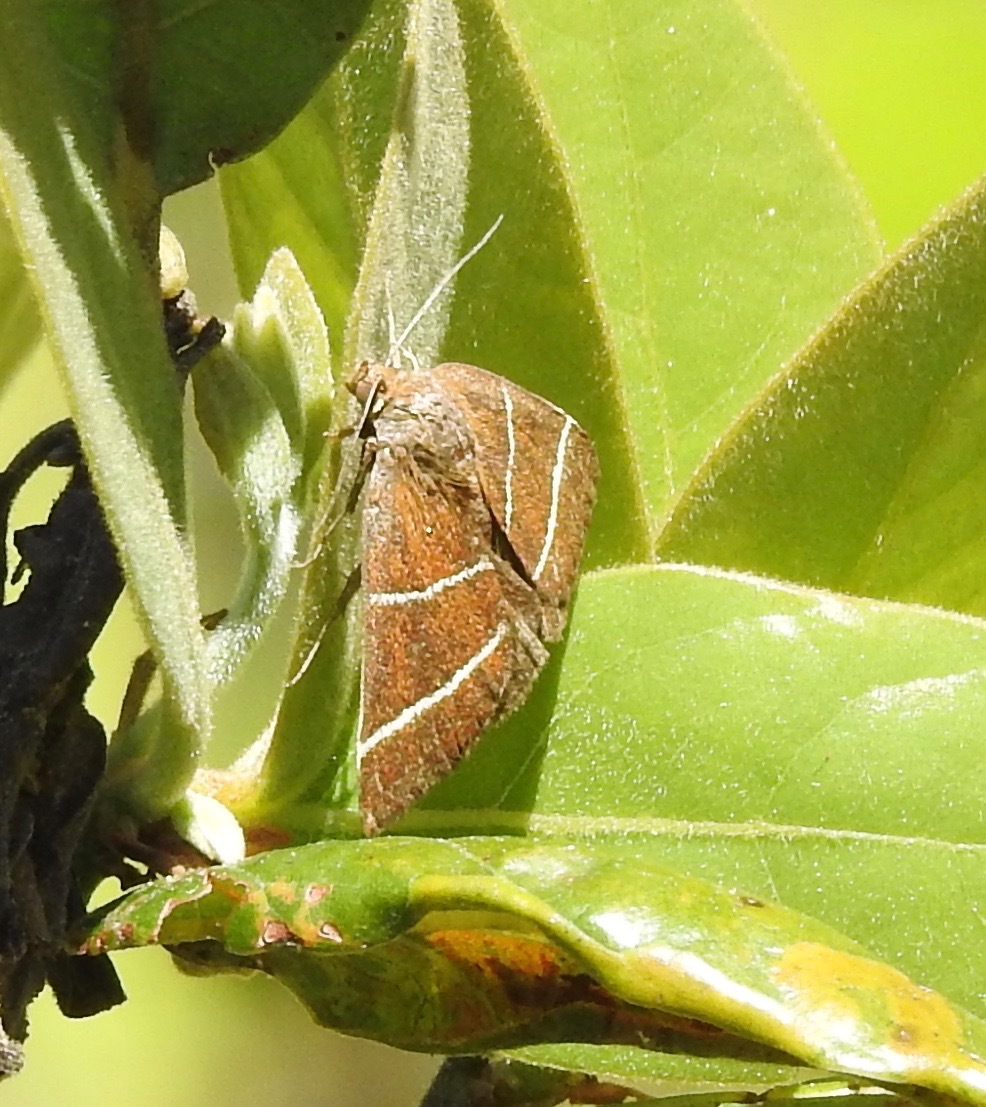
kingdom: Animalia
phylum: Arthropoda
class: Insecta
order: Lepidoptera
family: Erebidae
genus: Argyrostrotis
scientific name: Argyrostrotis quadrifilaris
